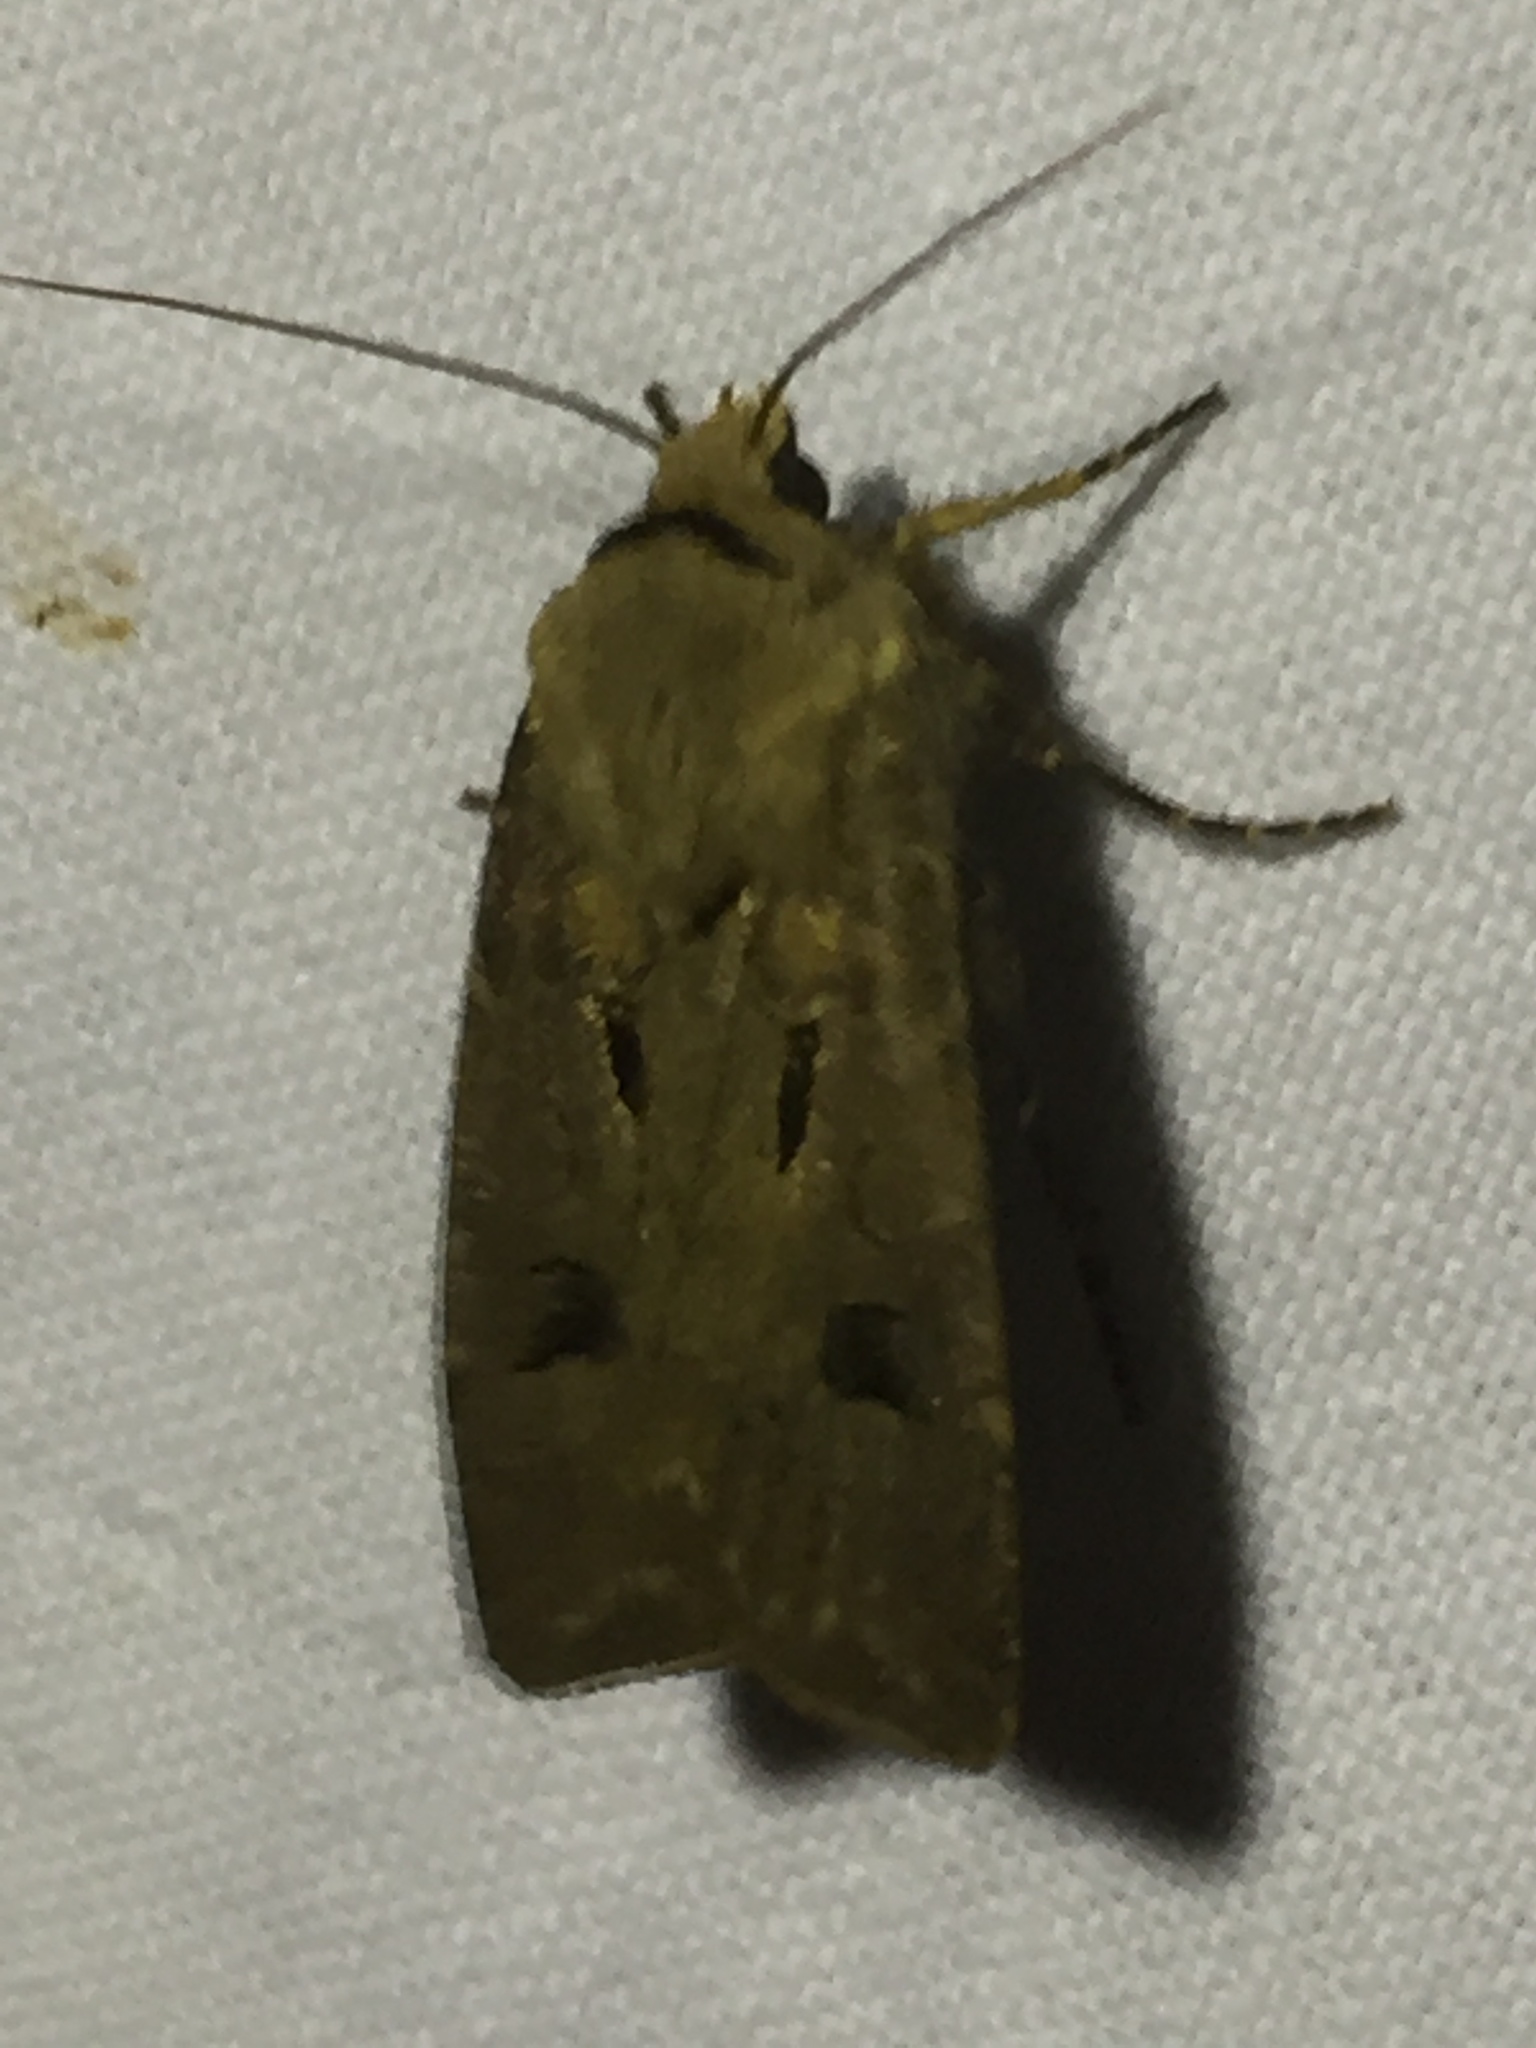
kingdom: Animalia
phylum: Arthropoda
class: Insecta
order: Lepidoptera
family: Noctuidae
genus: Agrotis
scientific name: Agrotis exclamationis
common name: Heart and dart
